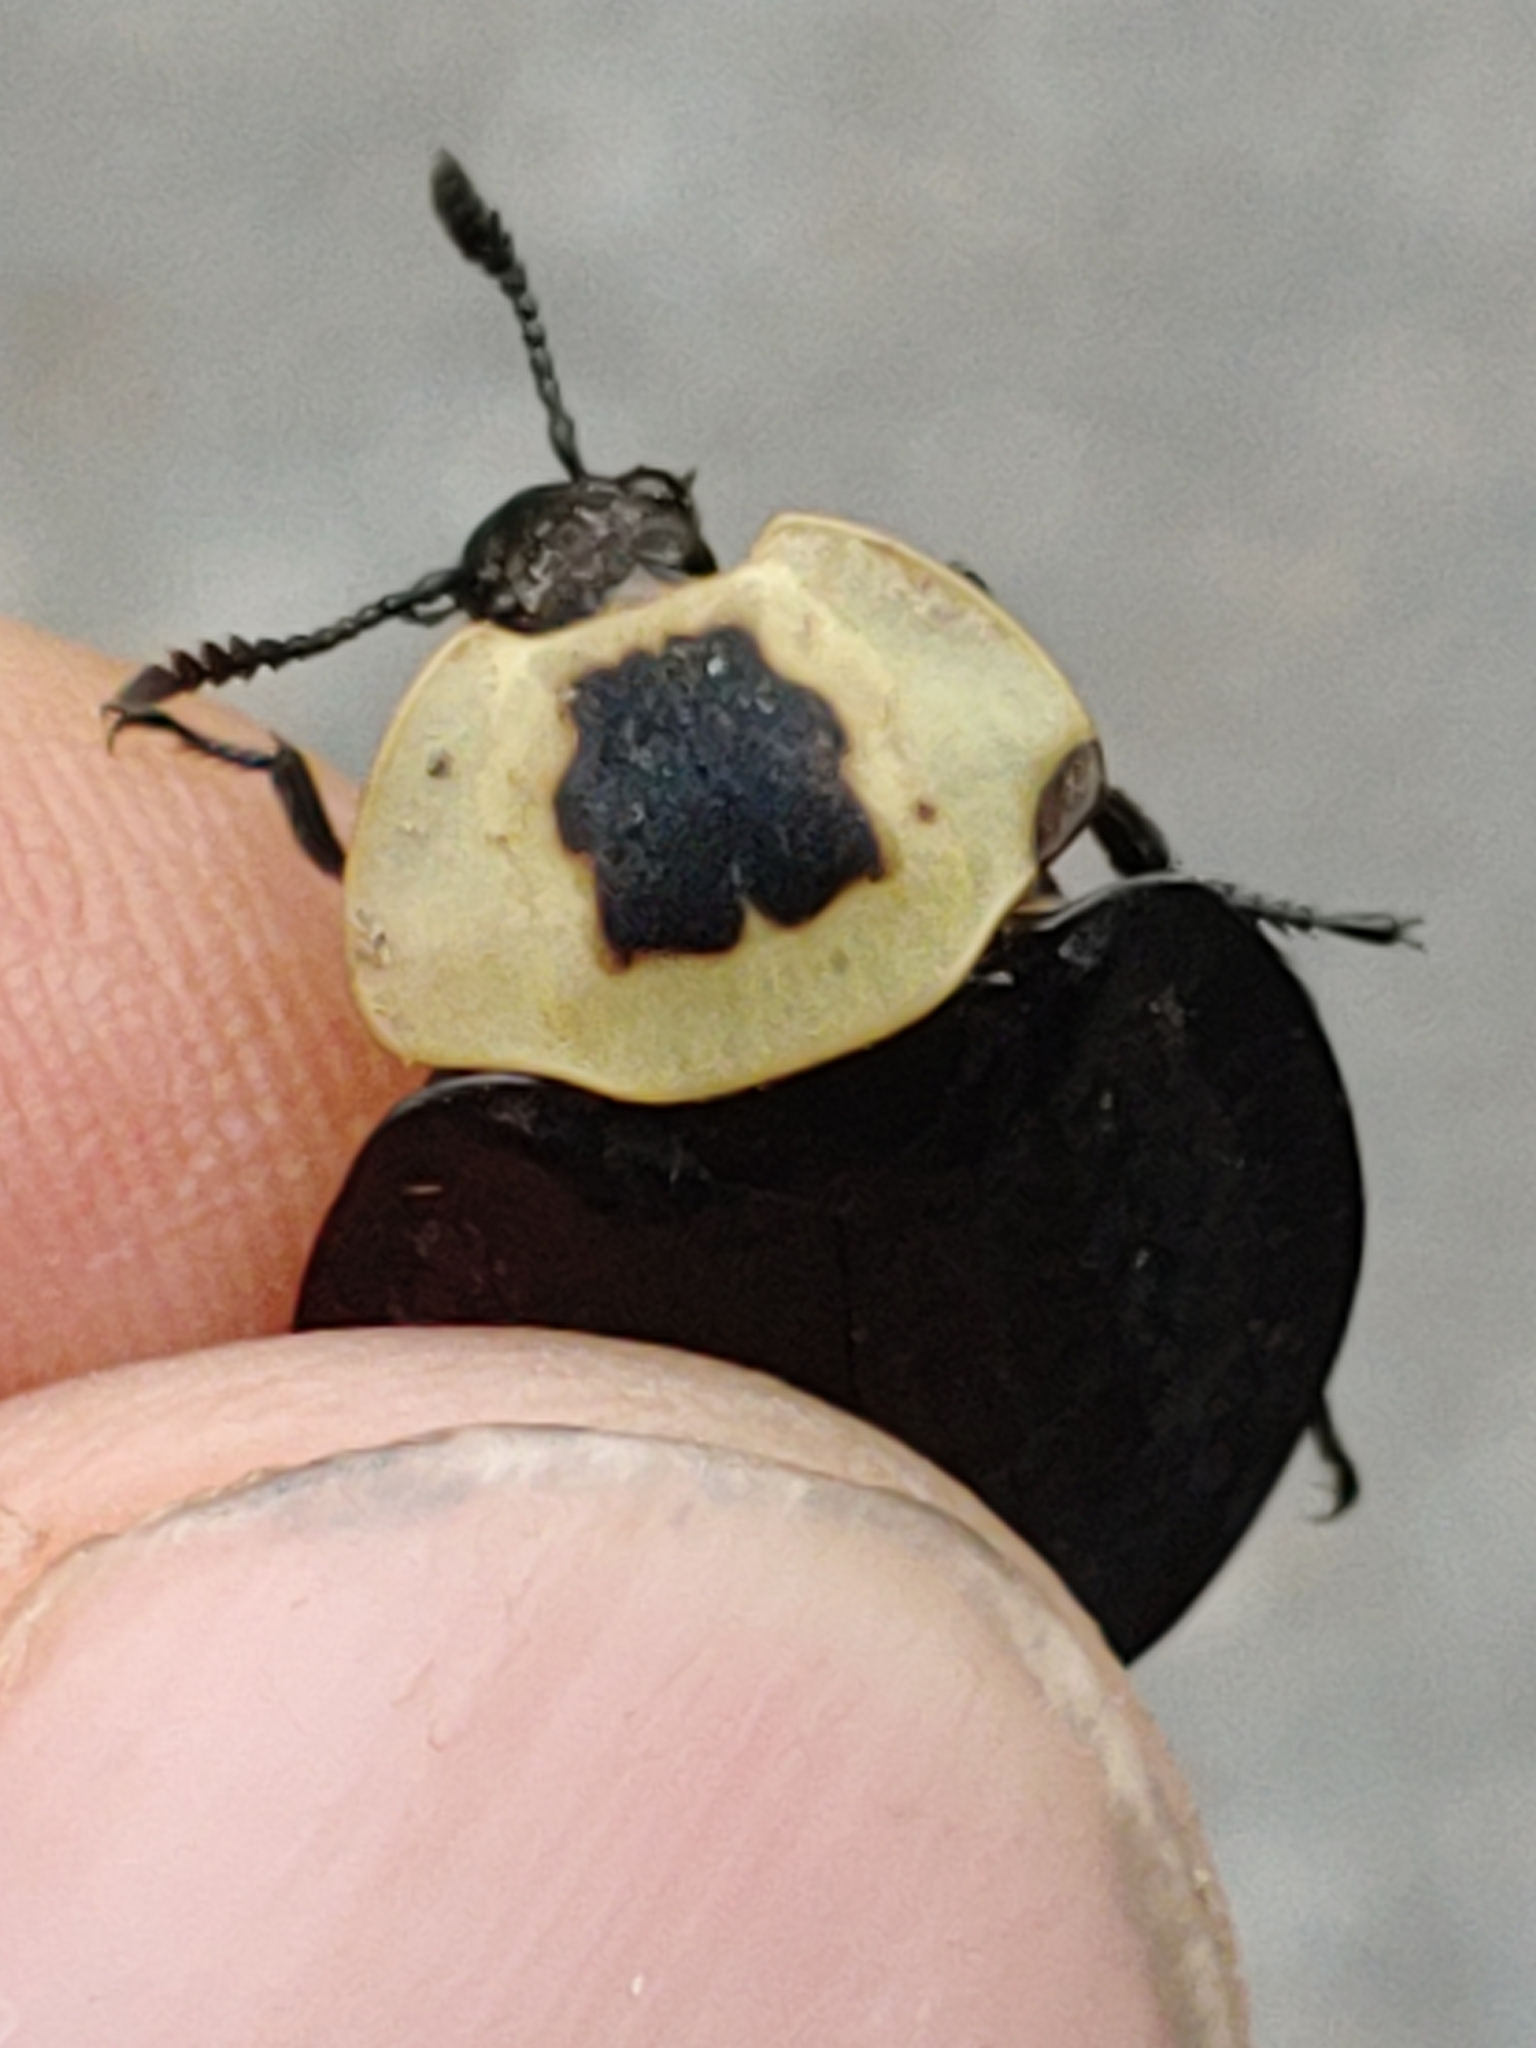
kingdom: Animalia
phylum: Arthropoda
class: Insecta
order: Coleoptera
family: Staphylinidae
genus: Necrophila
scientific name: Necrophila americana
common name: American carrion beetle
